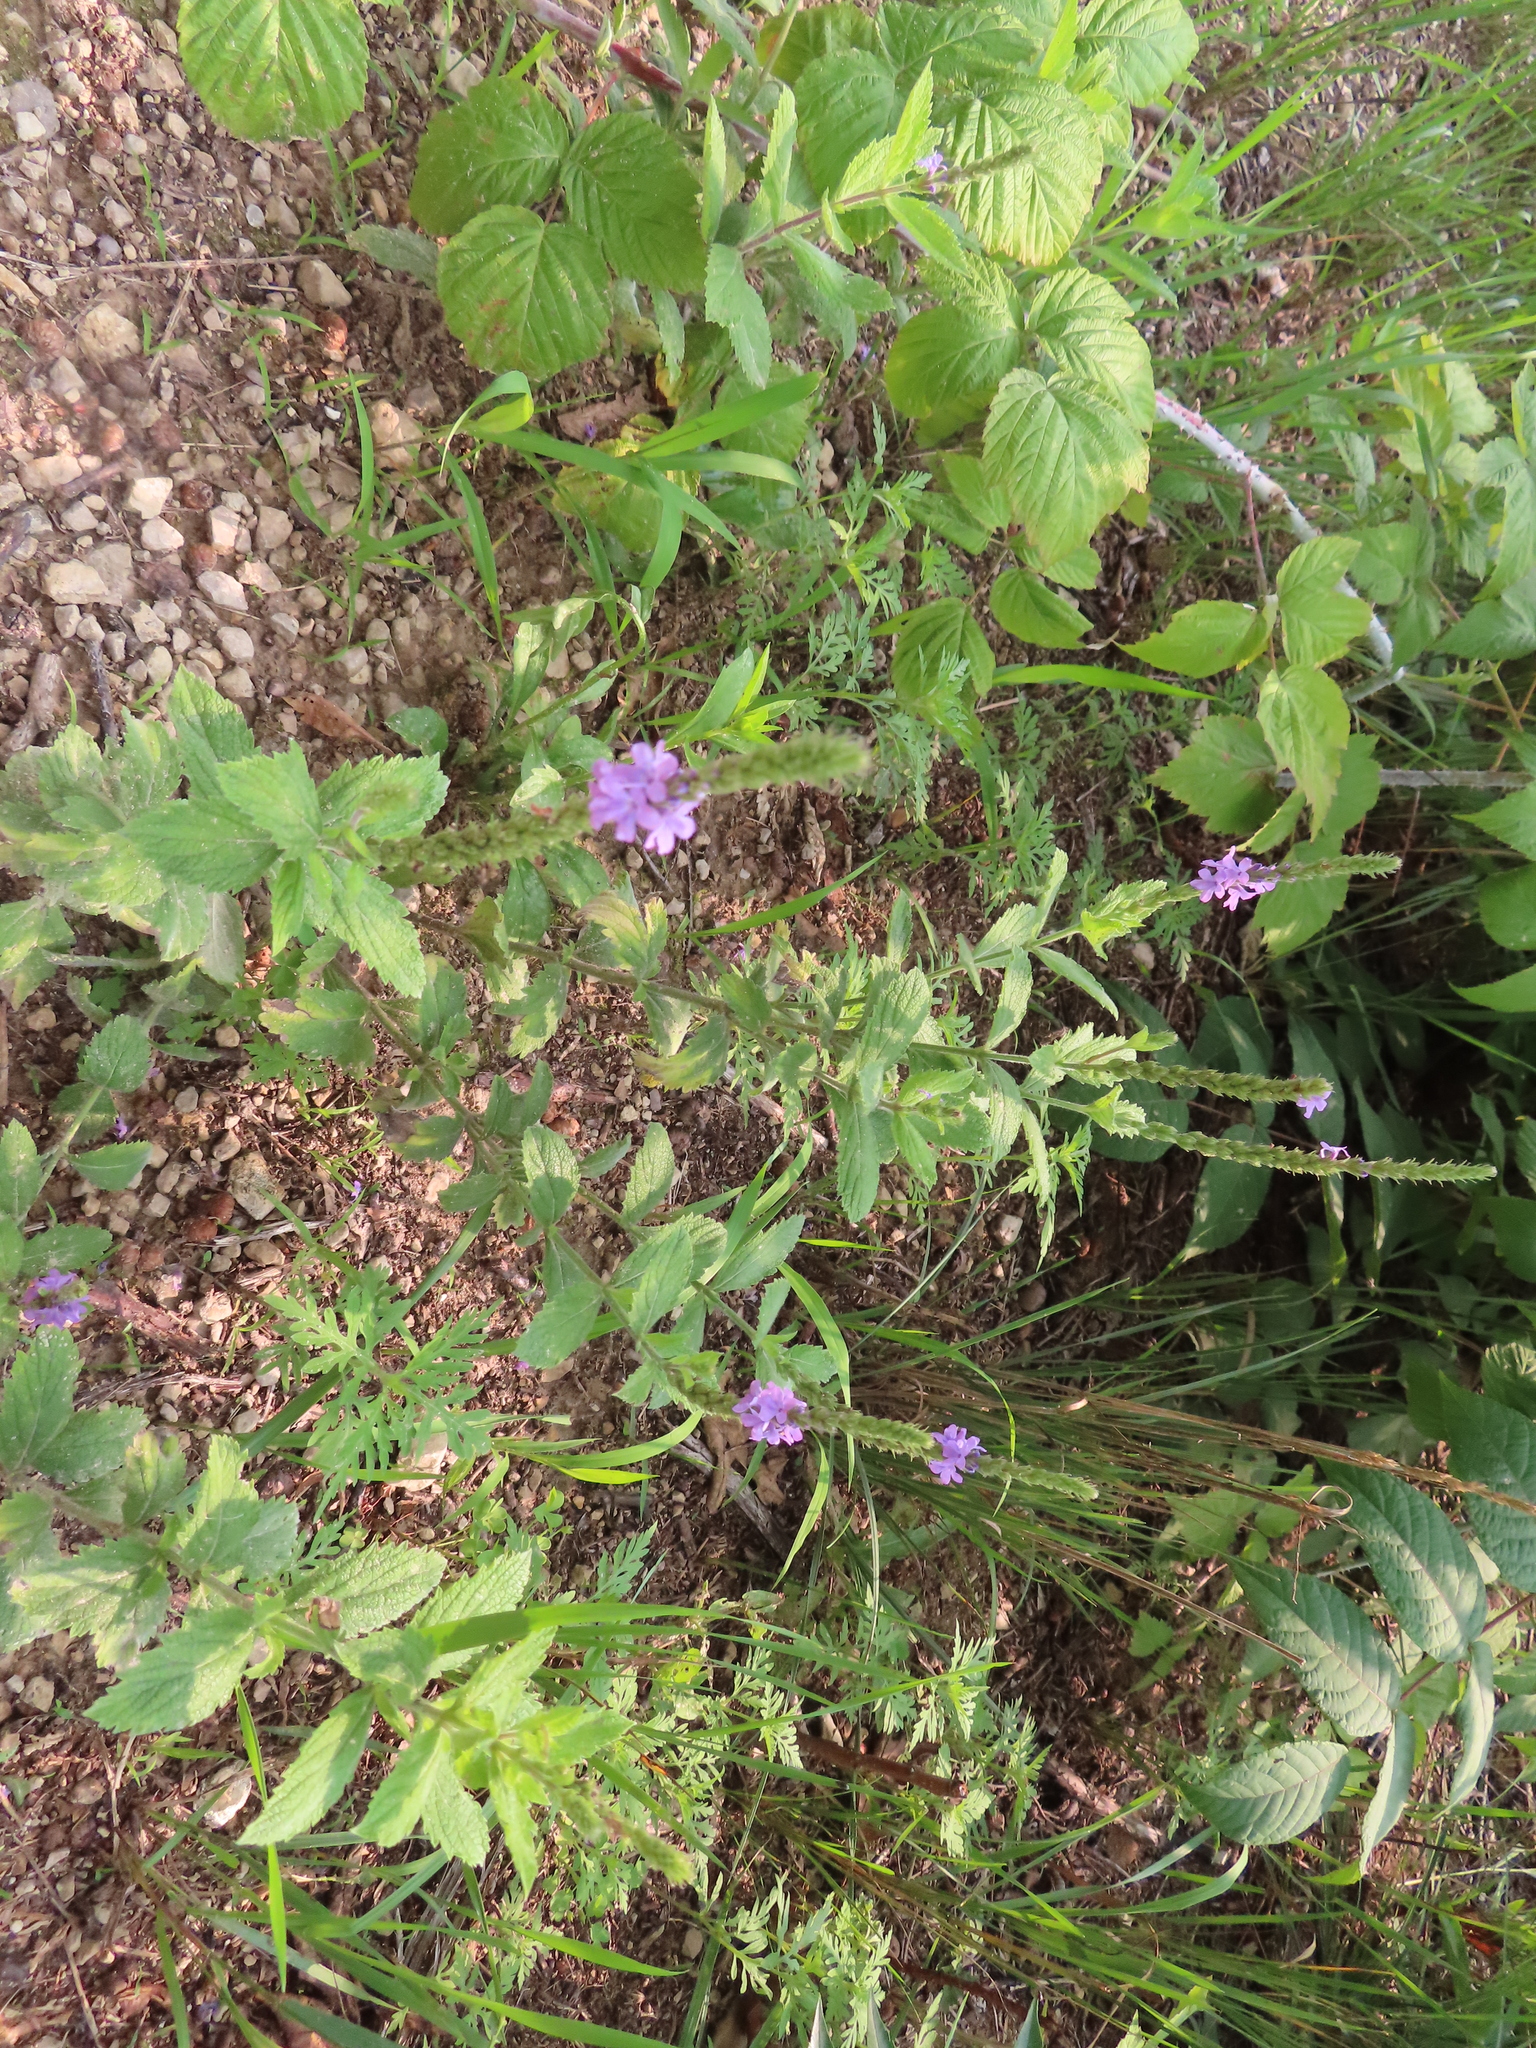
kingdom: Plantae
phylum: Tracheophyta
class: Magnoliopsida
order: Lamiales
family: Verbenaceae
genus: Verbena
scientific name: Verbena stricta
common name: Hoary vervain
